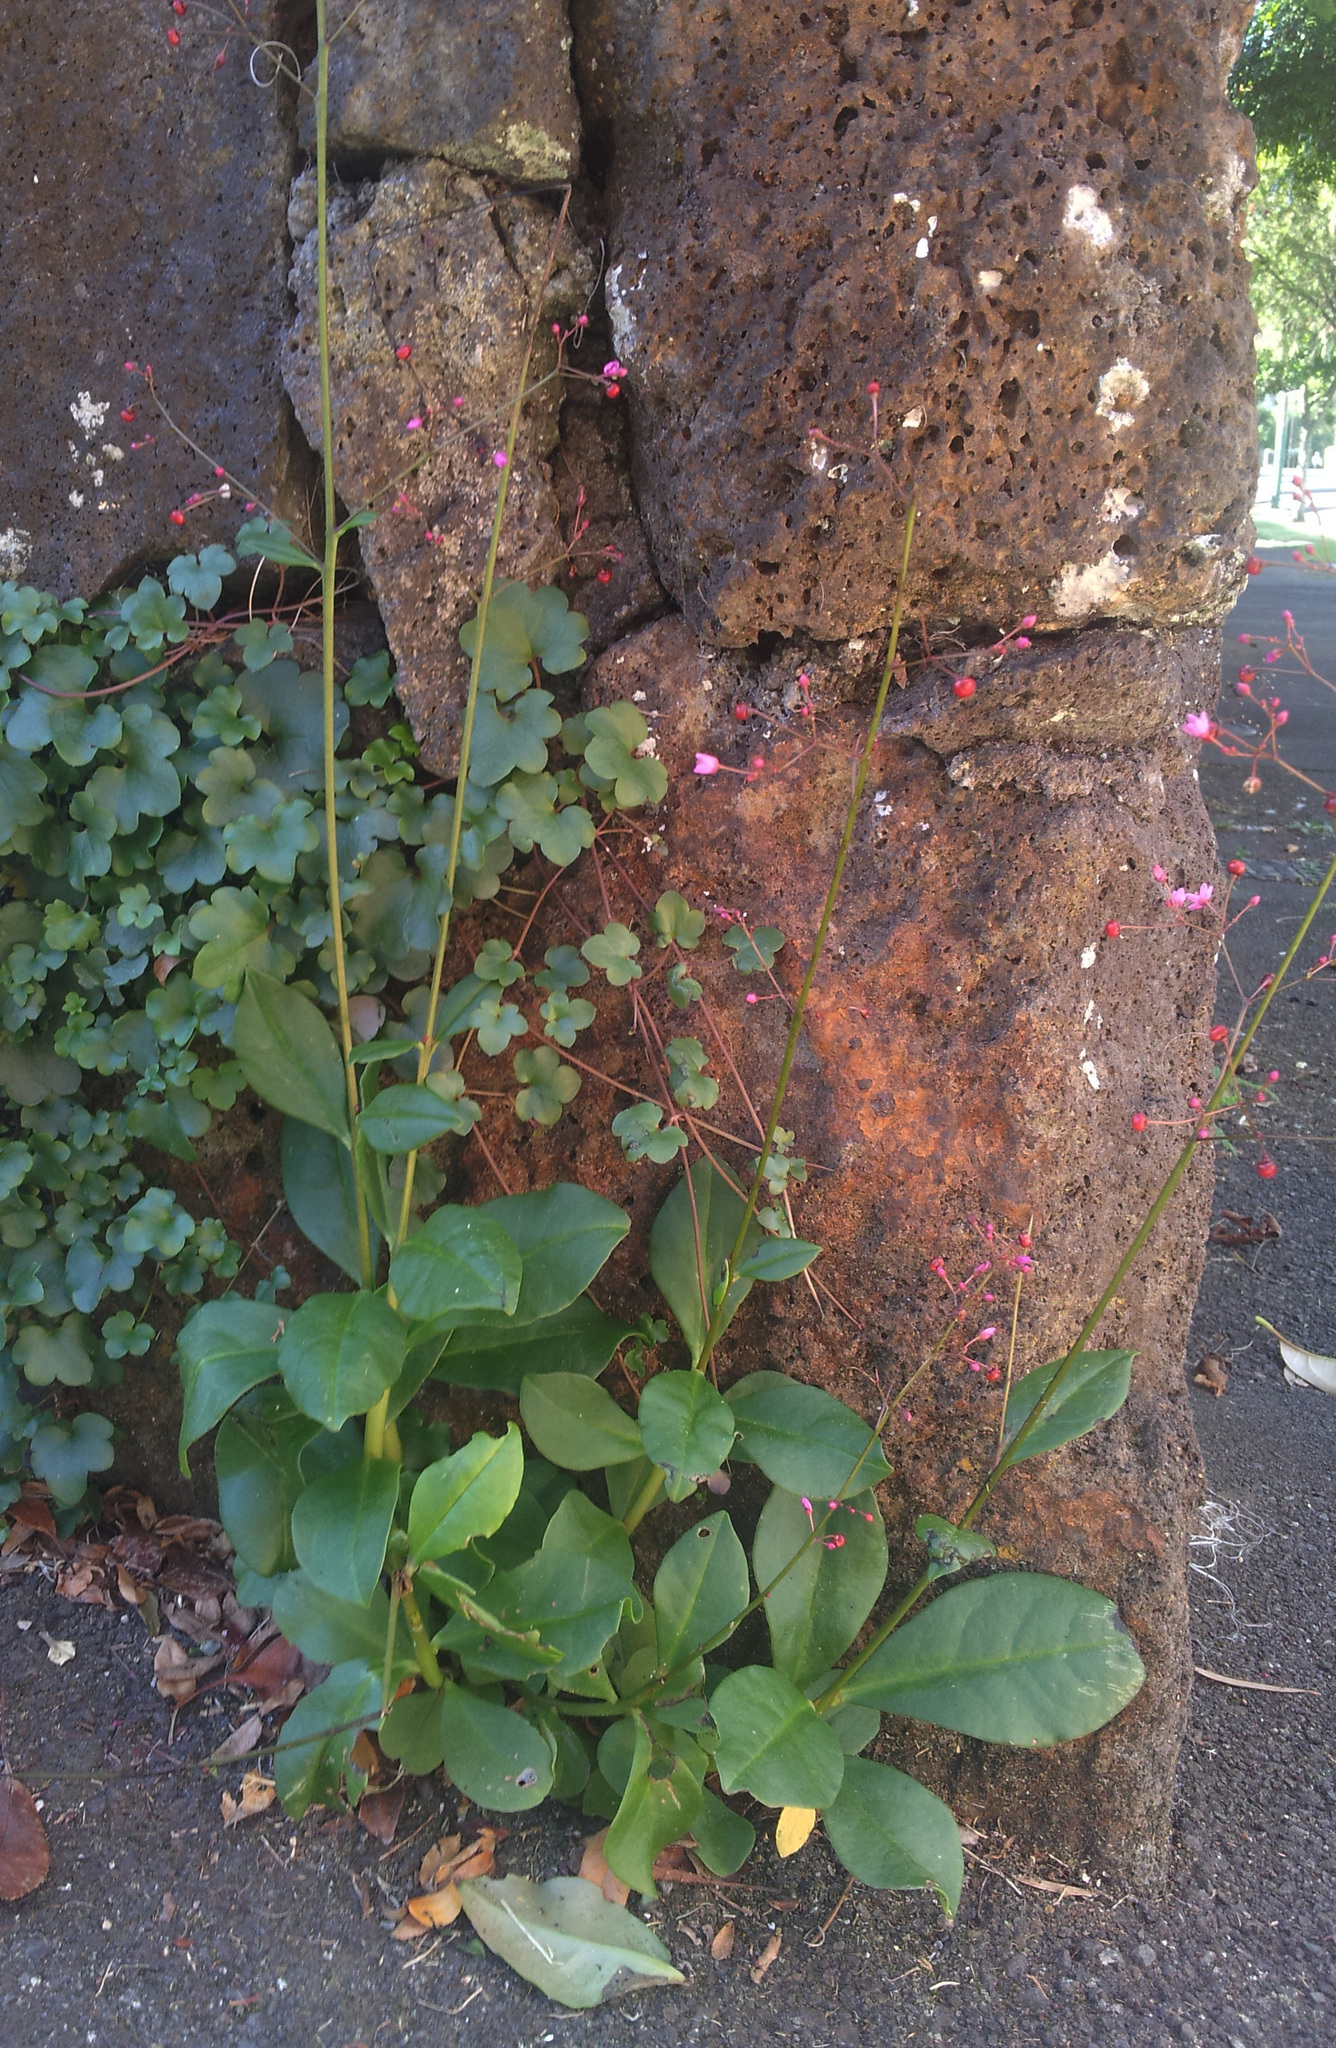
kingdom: Plantae
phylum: Tracheophyta
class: Magnoliopsida
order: Caryophyllales
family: Talinaceae
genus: Talinum
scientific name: Talinum paniculatum
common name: Jewels of opar
